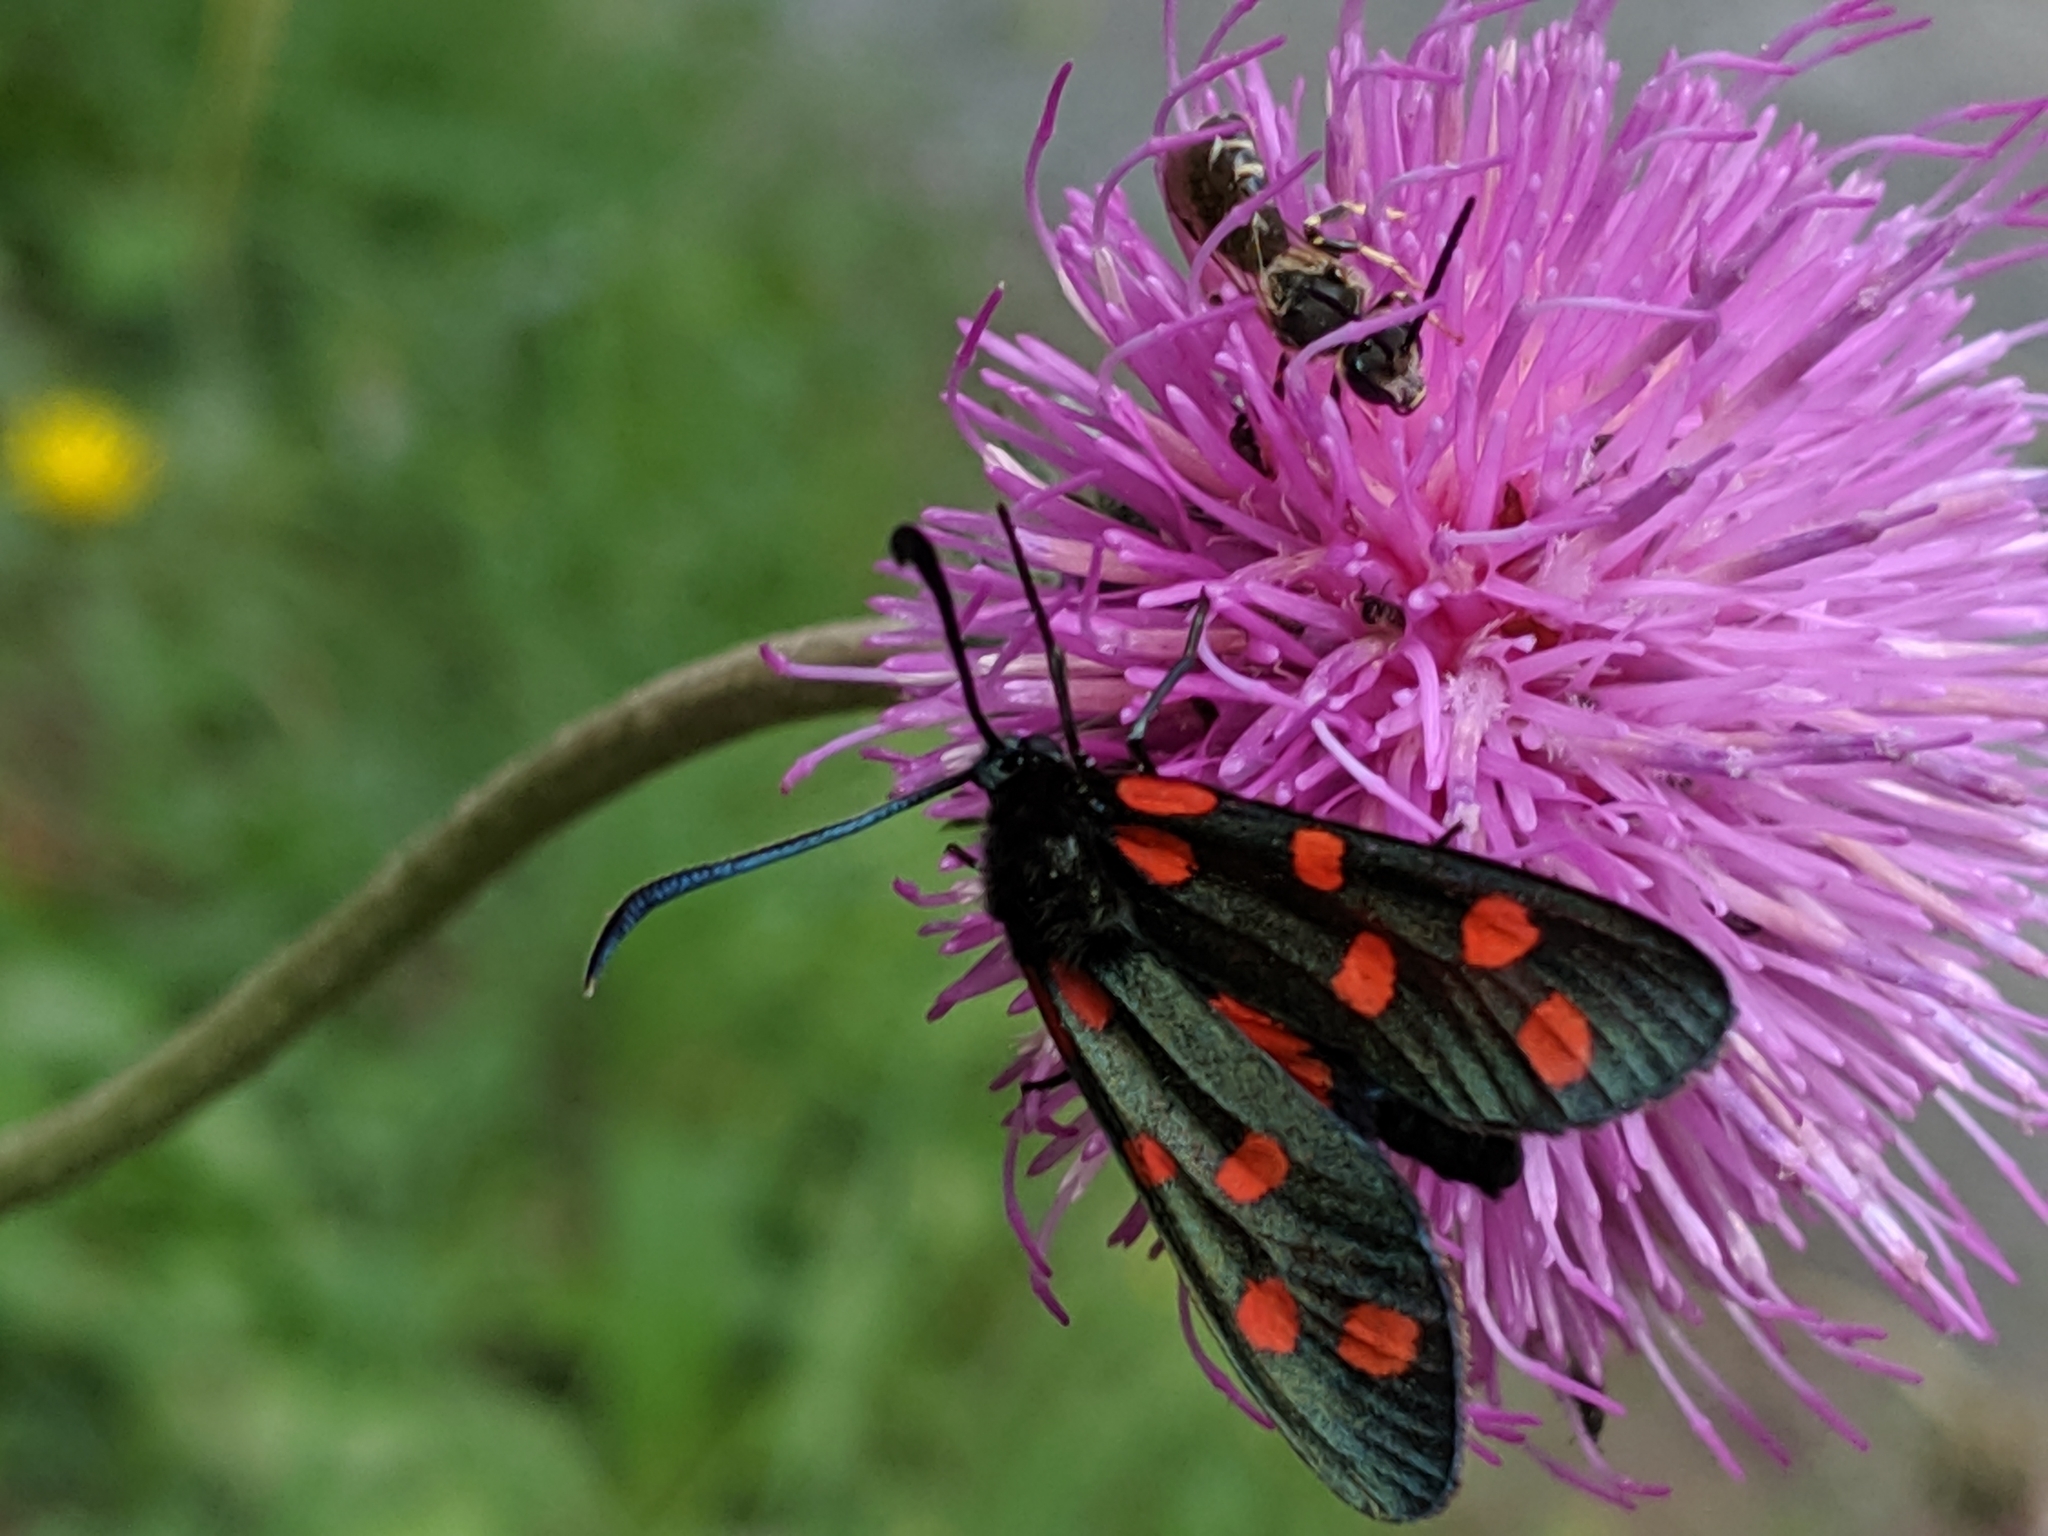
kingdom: Animalia
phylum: Arthropoda
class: Insecta
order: Lepidoptera
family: Zygaenidae
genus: Zygaena
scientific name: Zygaena transalpina
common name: Southern six spot burnet
